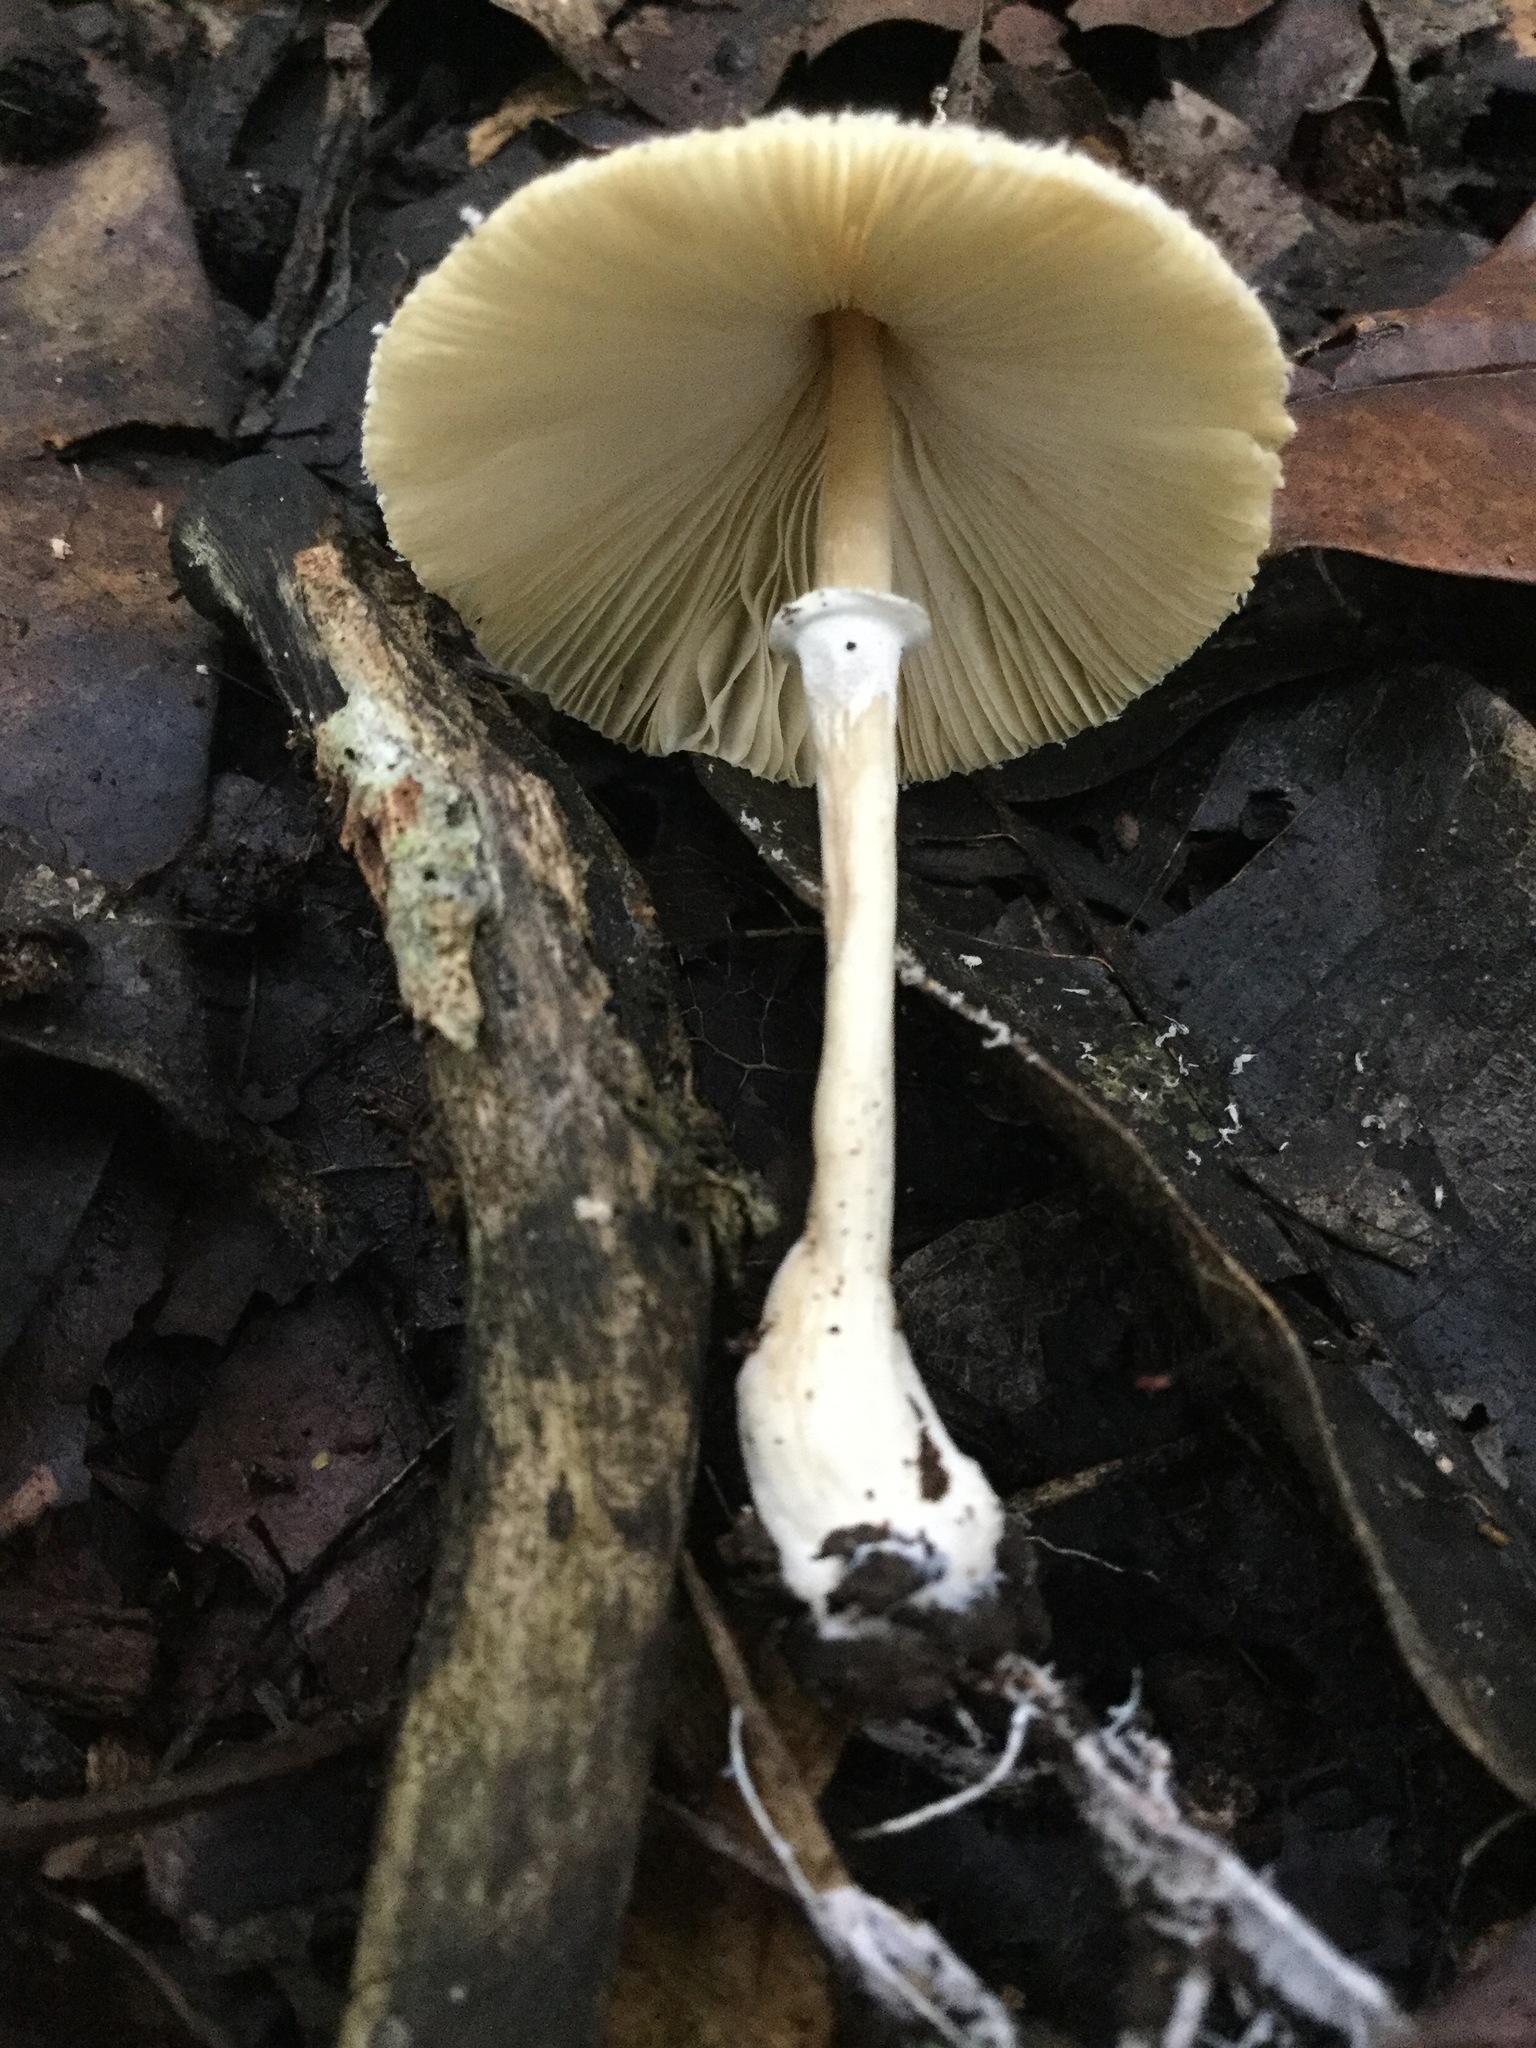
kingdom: Fungi
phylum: Basidiomycota
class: Agaricomycetes
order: Agaricales
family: Agaricaceae
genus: Leucocoprinus
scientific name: Leucocoprinus cepistipes
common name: Onion-stalk parasol
